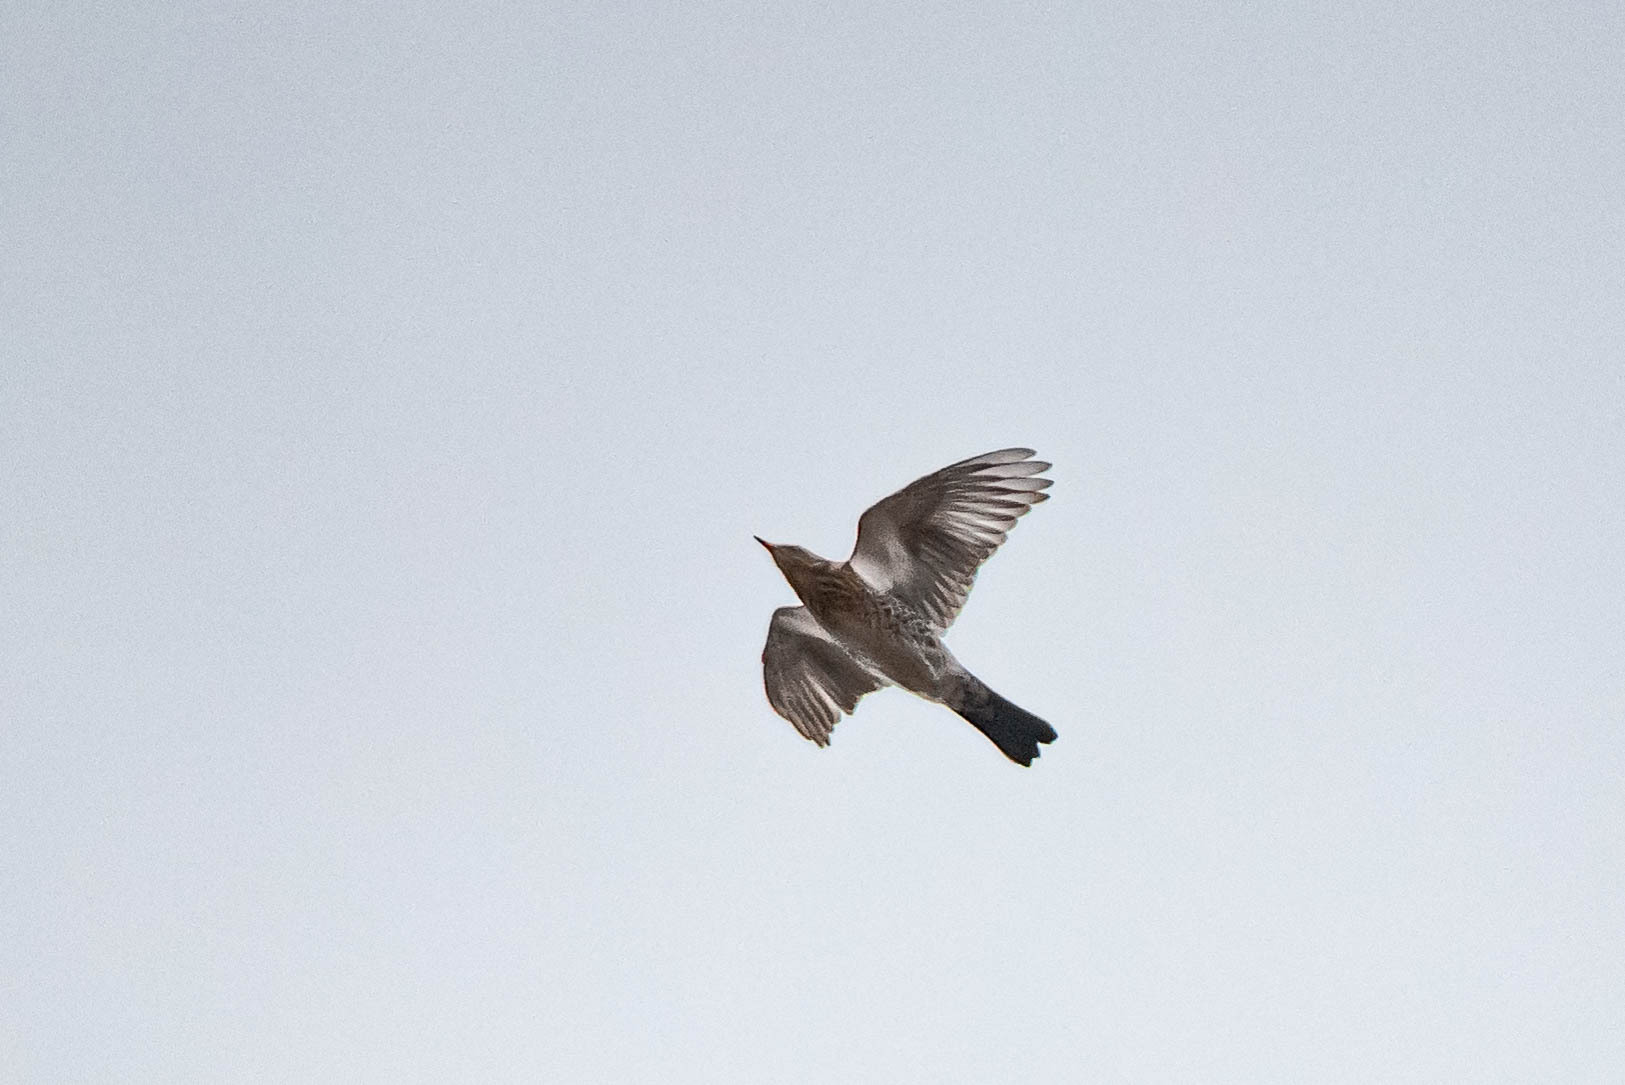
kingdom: Animalia
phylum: Chordata
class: Aves
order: Passeriformes
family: Turdidae
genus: Turdus
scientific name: Turdus pilaris
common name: Fieldfare
